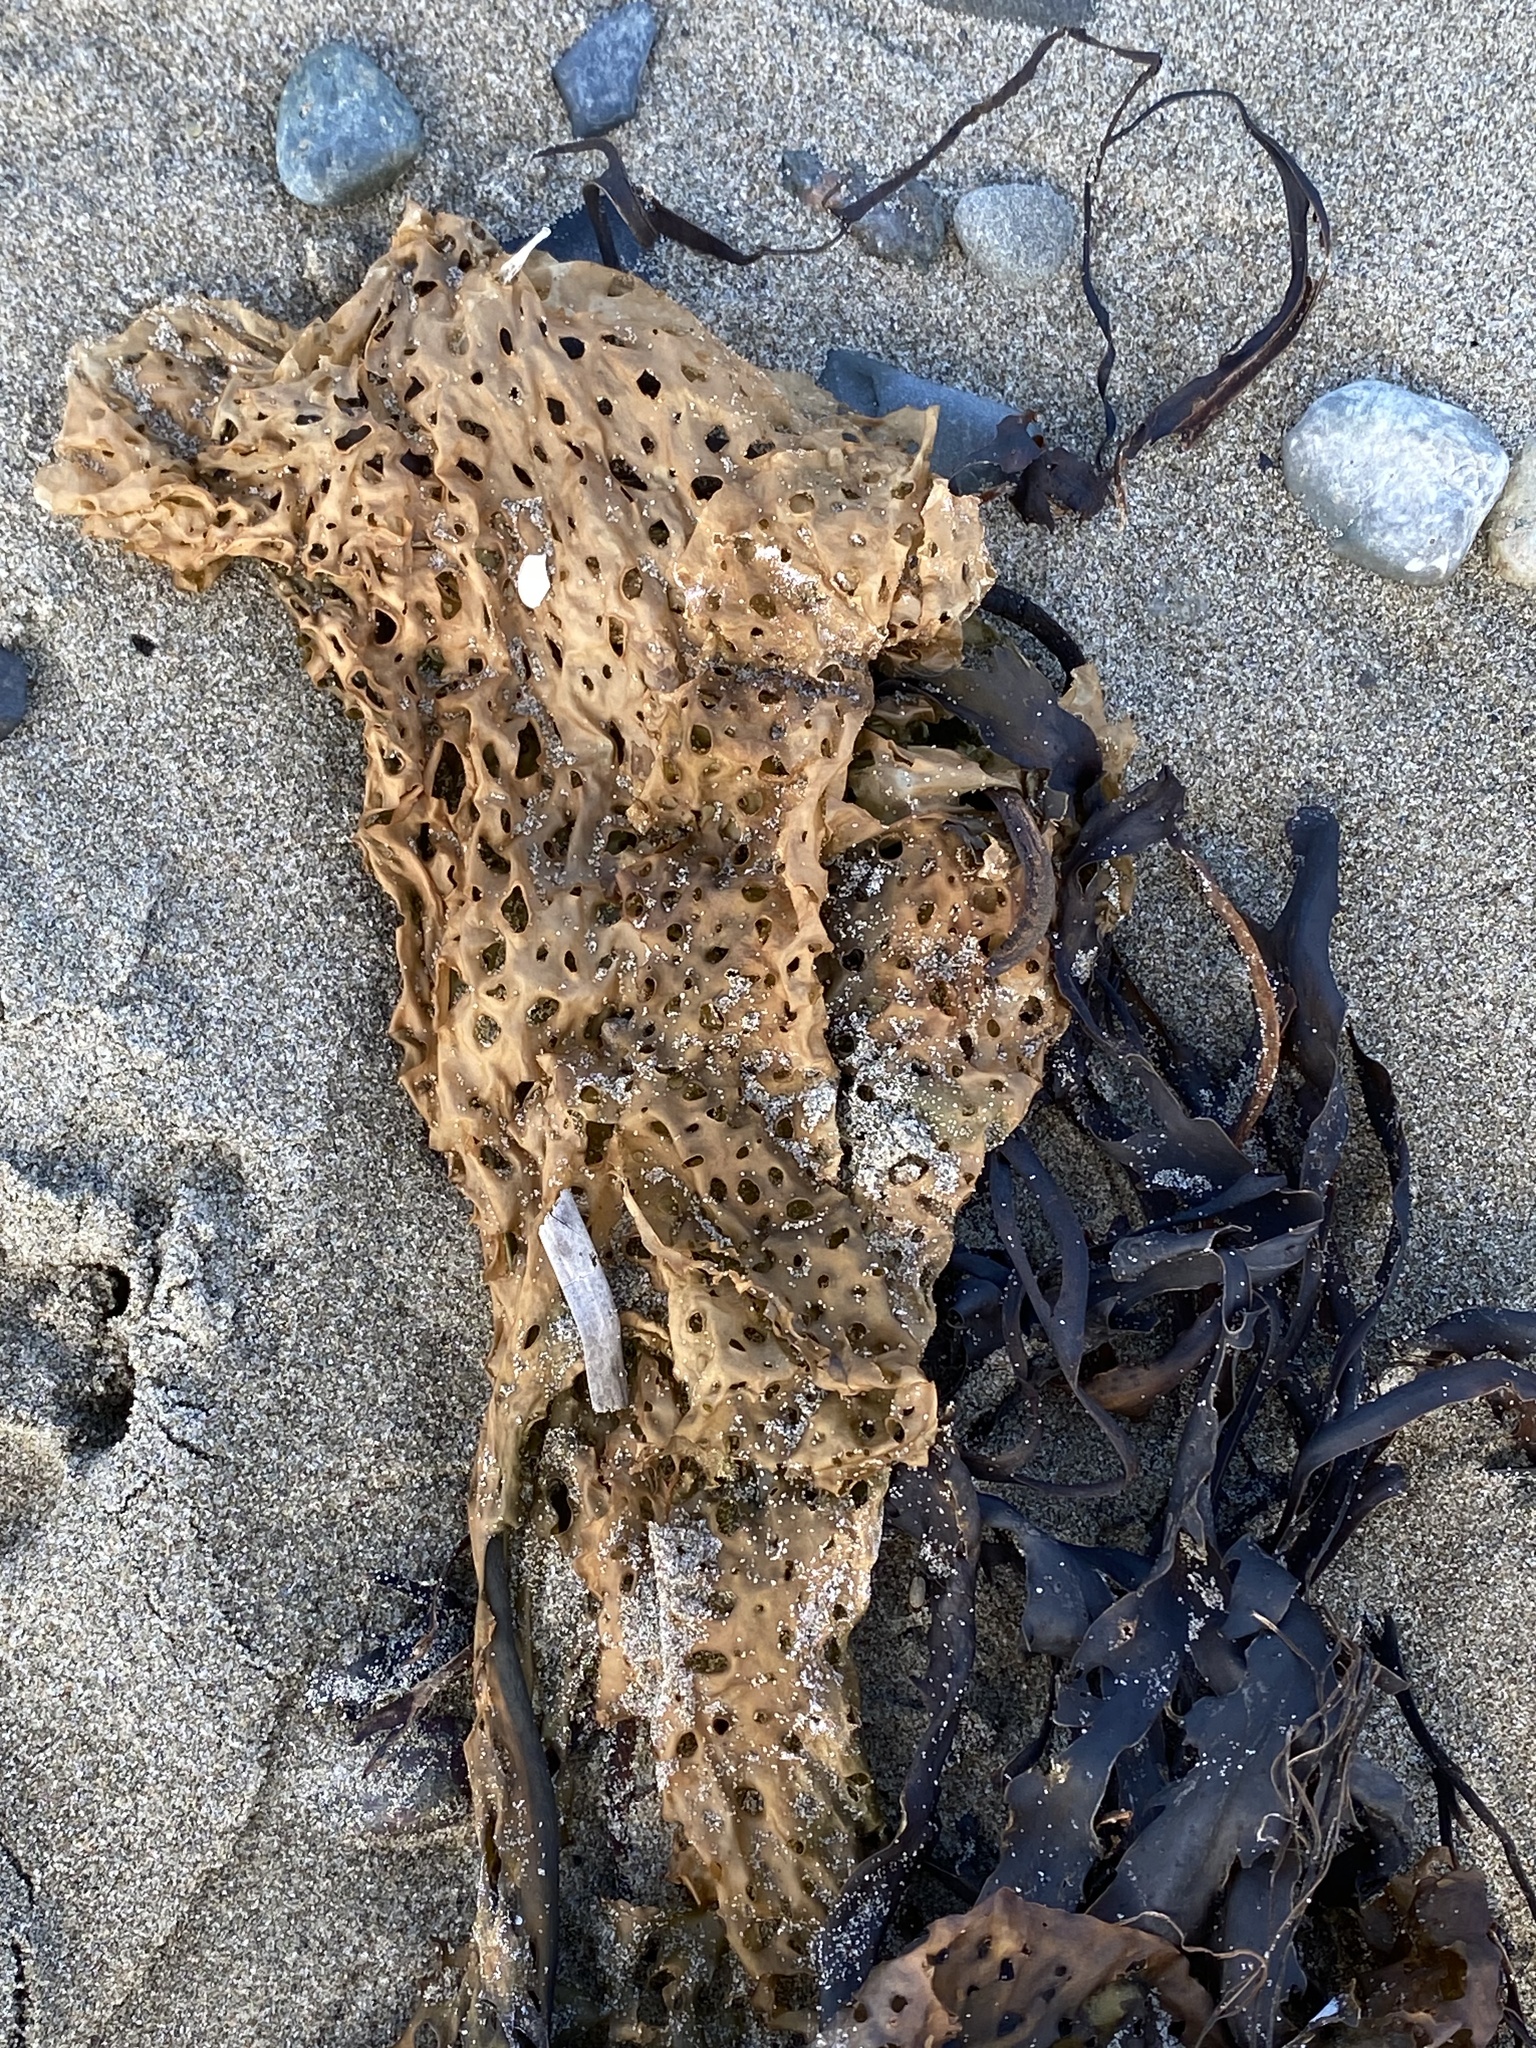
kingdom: Chromista
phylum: Ochrophyta
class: Phaeophyceae
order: Laminariales
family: Costariaceae
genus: Agarum
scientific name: Agarum clathratum
